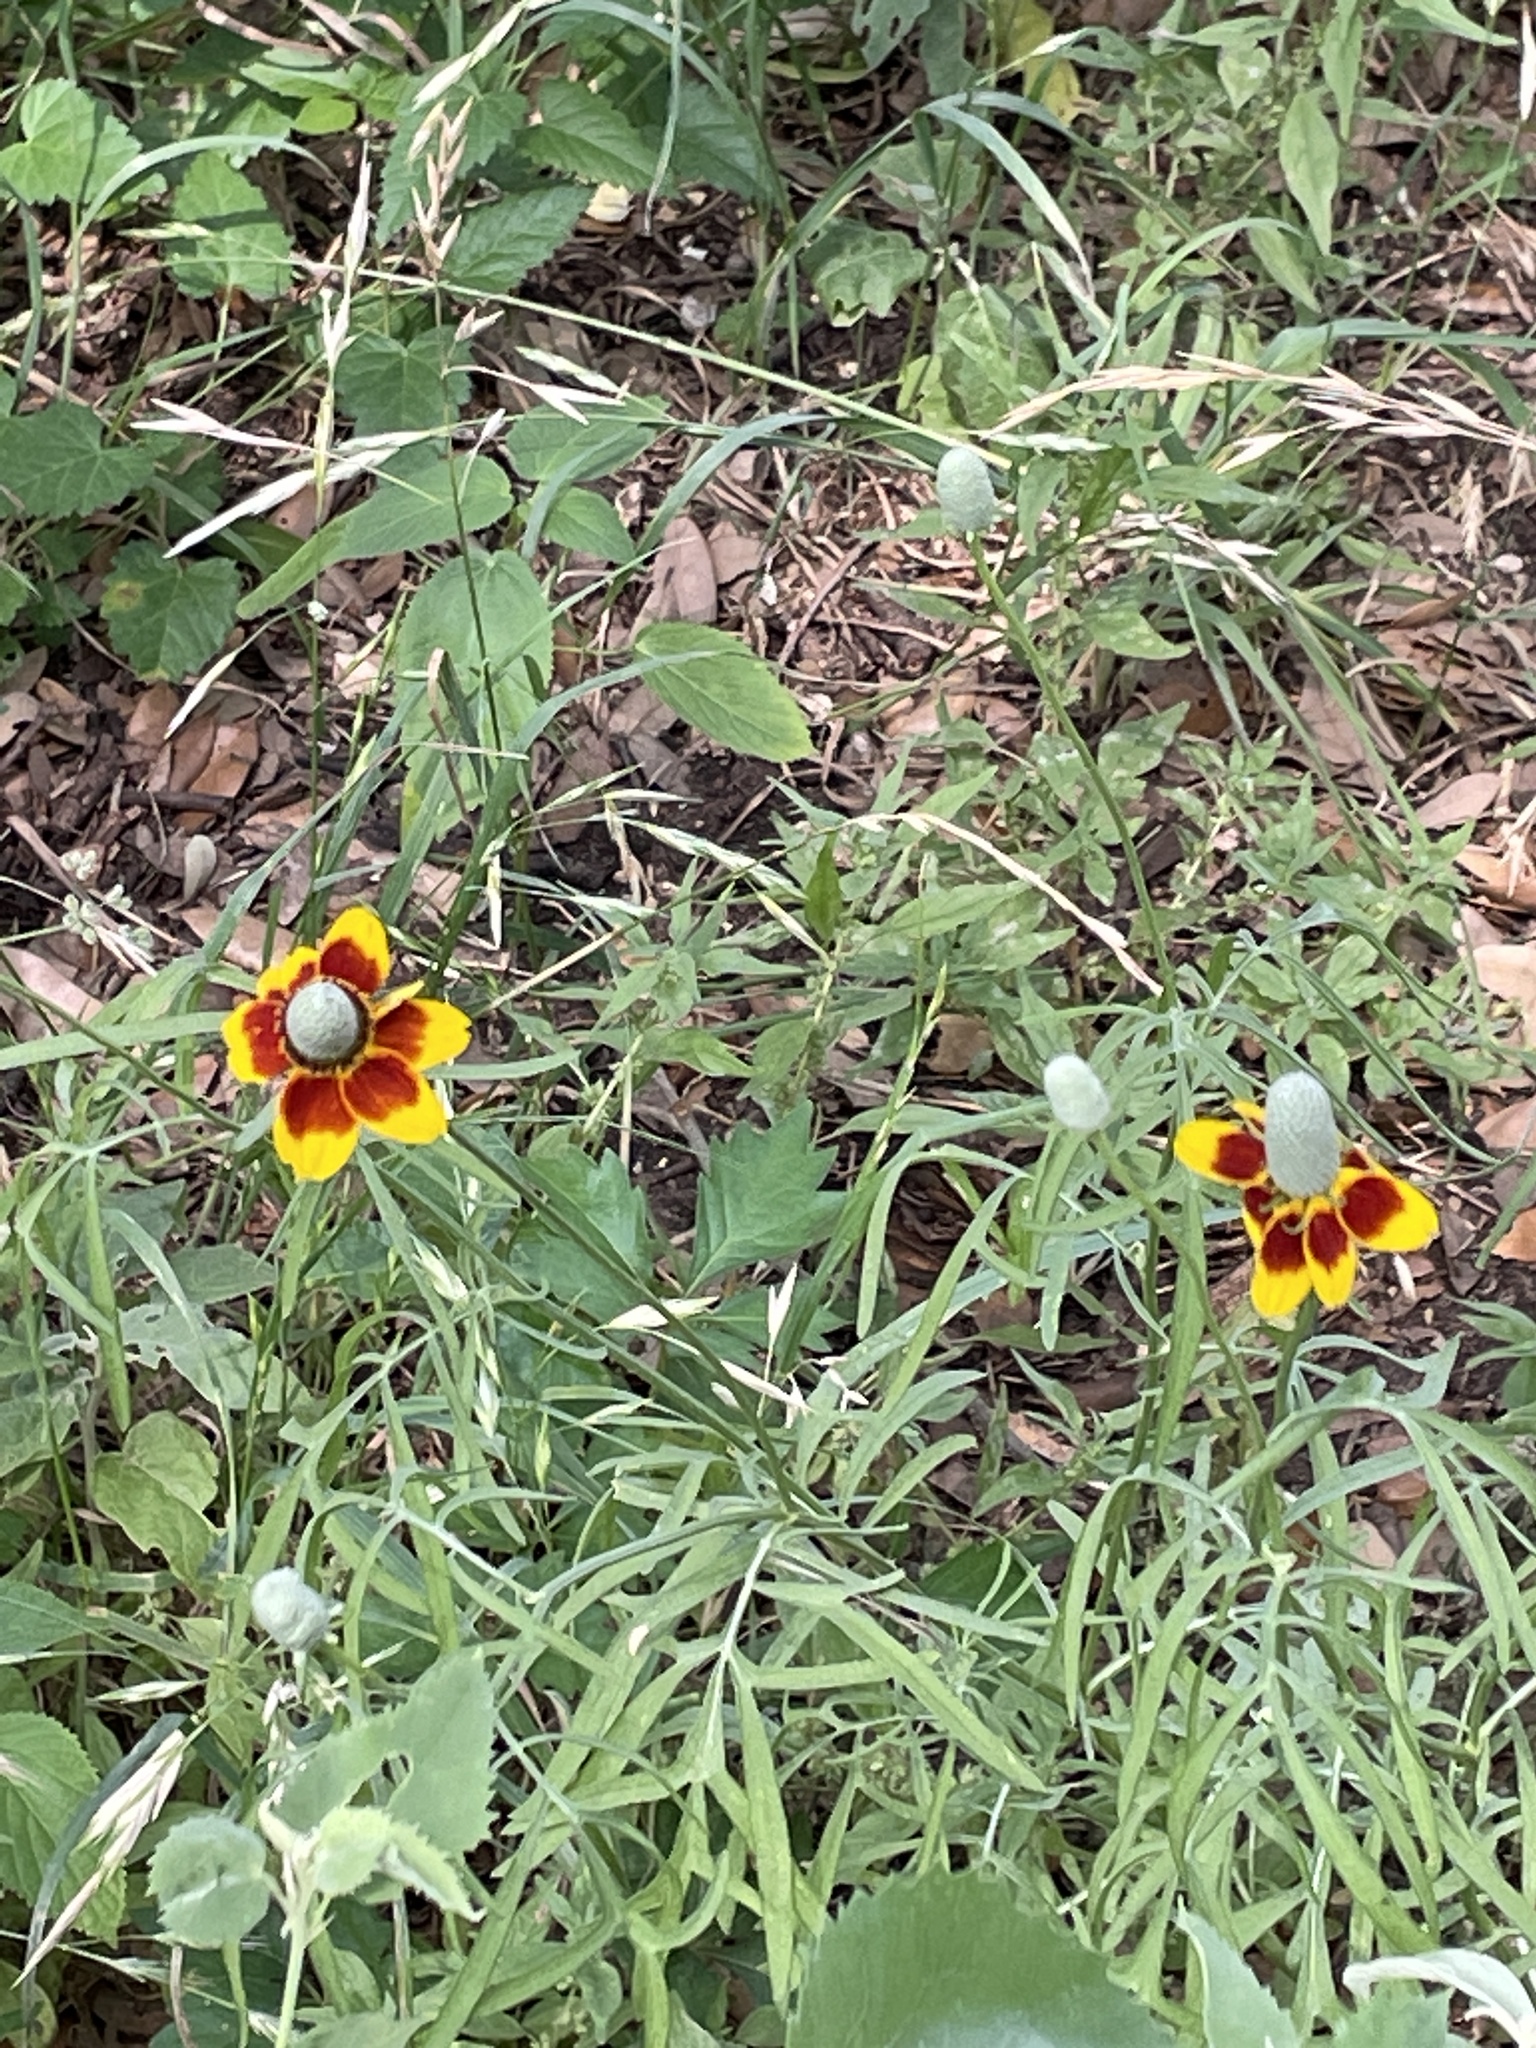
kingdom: Plantae
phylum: Tracheophyta
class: Magnoliopsida
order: Asterales
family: Asteraceae
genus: Ratibida
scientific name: Ratibida columnifera
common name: Prairie coneflower
